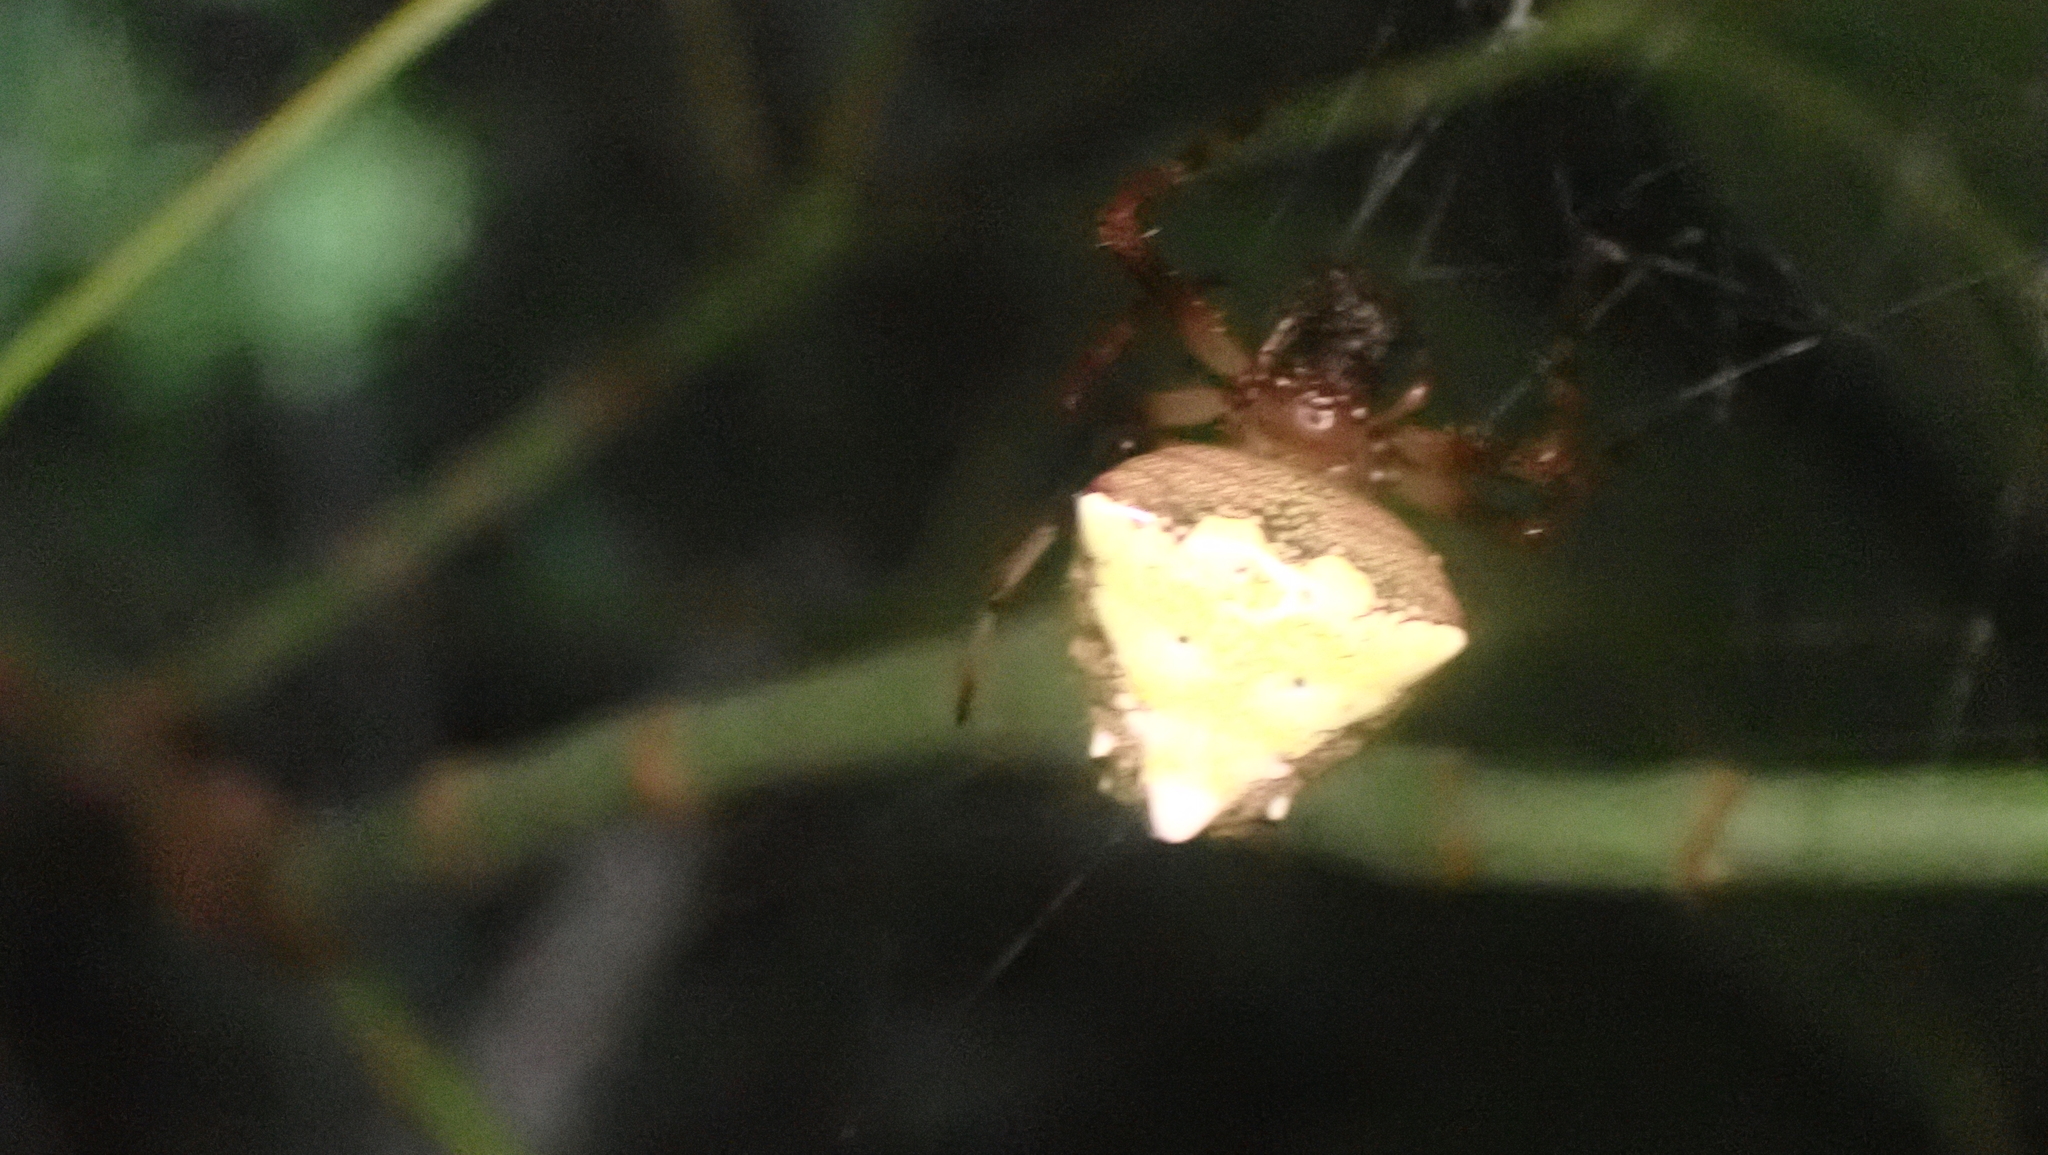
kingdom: Animalia
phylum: Arthropoda
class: Arachnida
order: Araneae
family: Araneidae
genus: Verrucosa
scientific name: Verrucosa arenata
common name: Orb weavers
